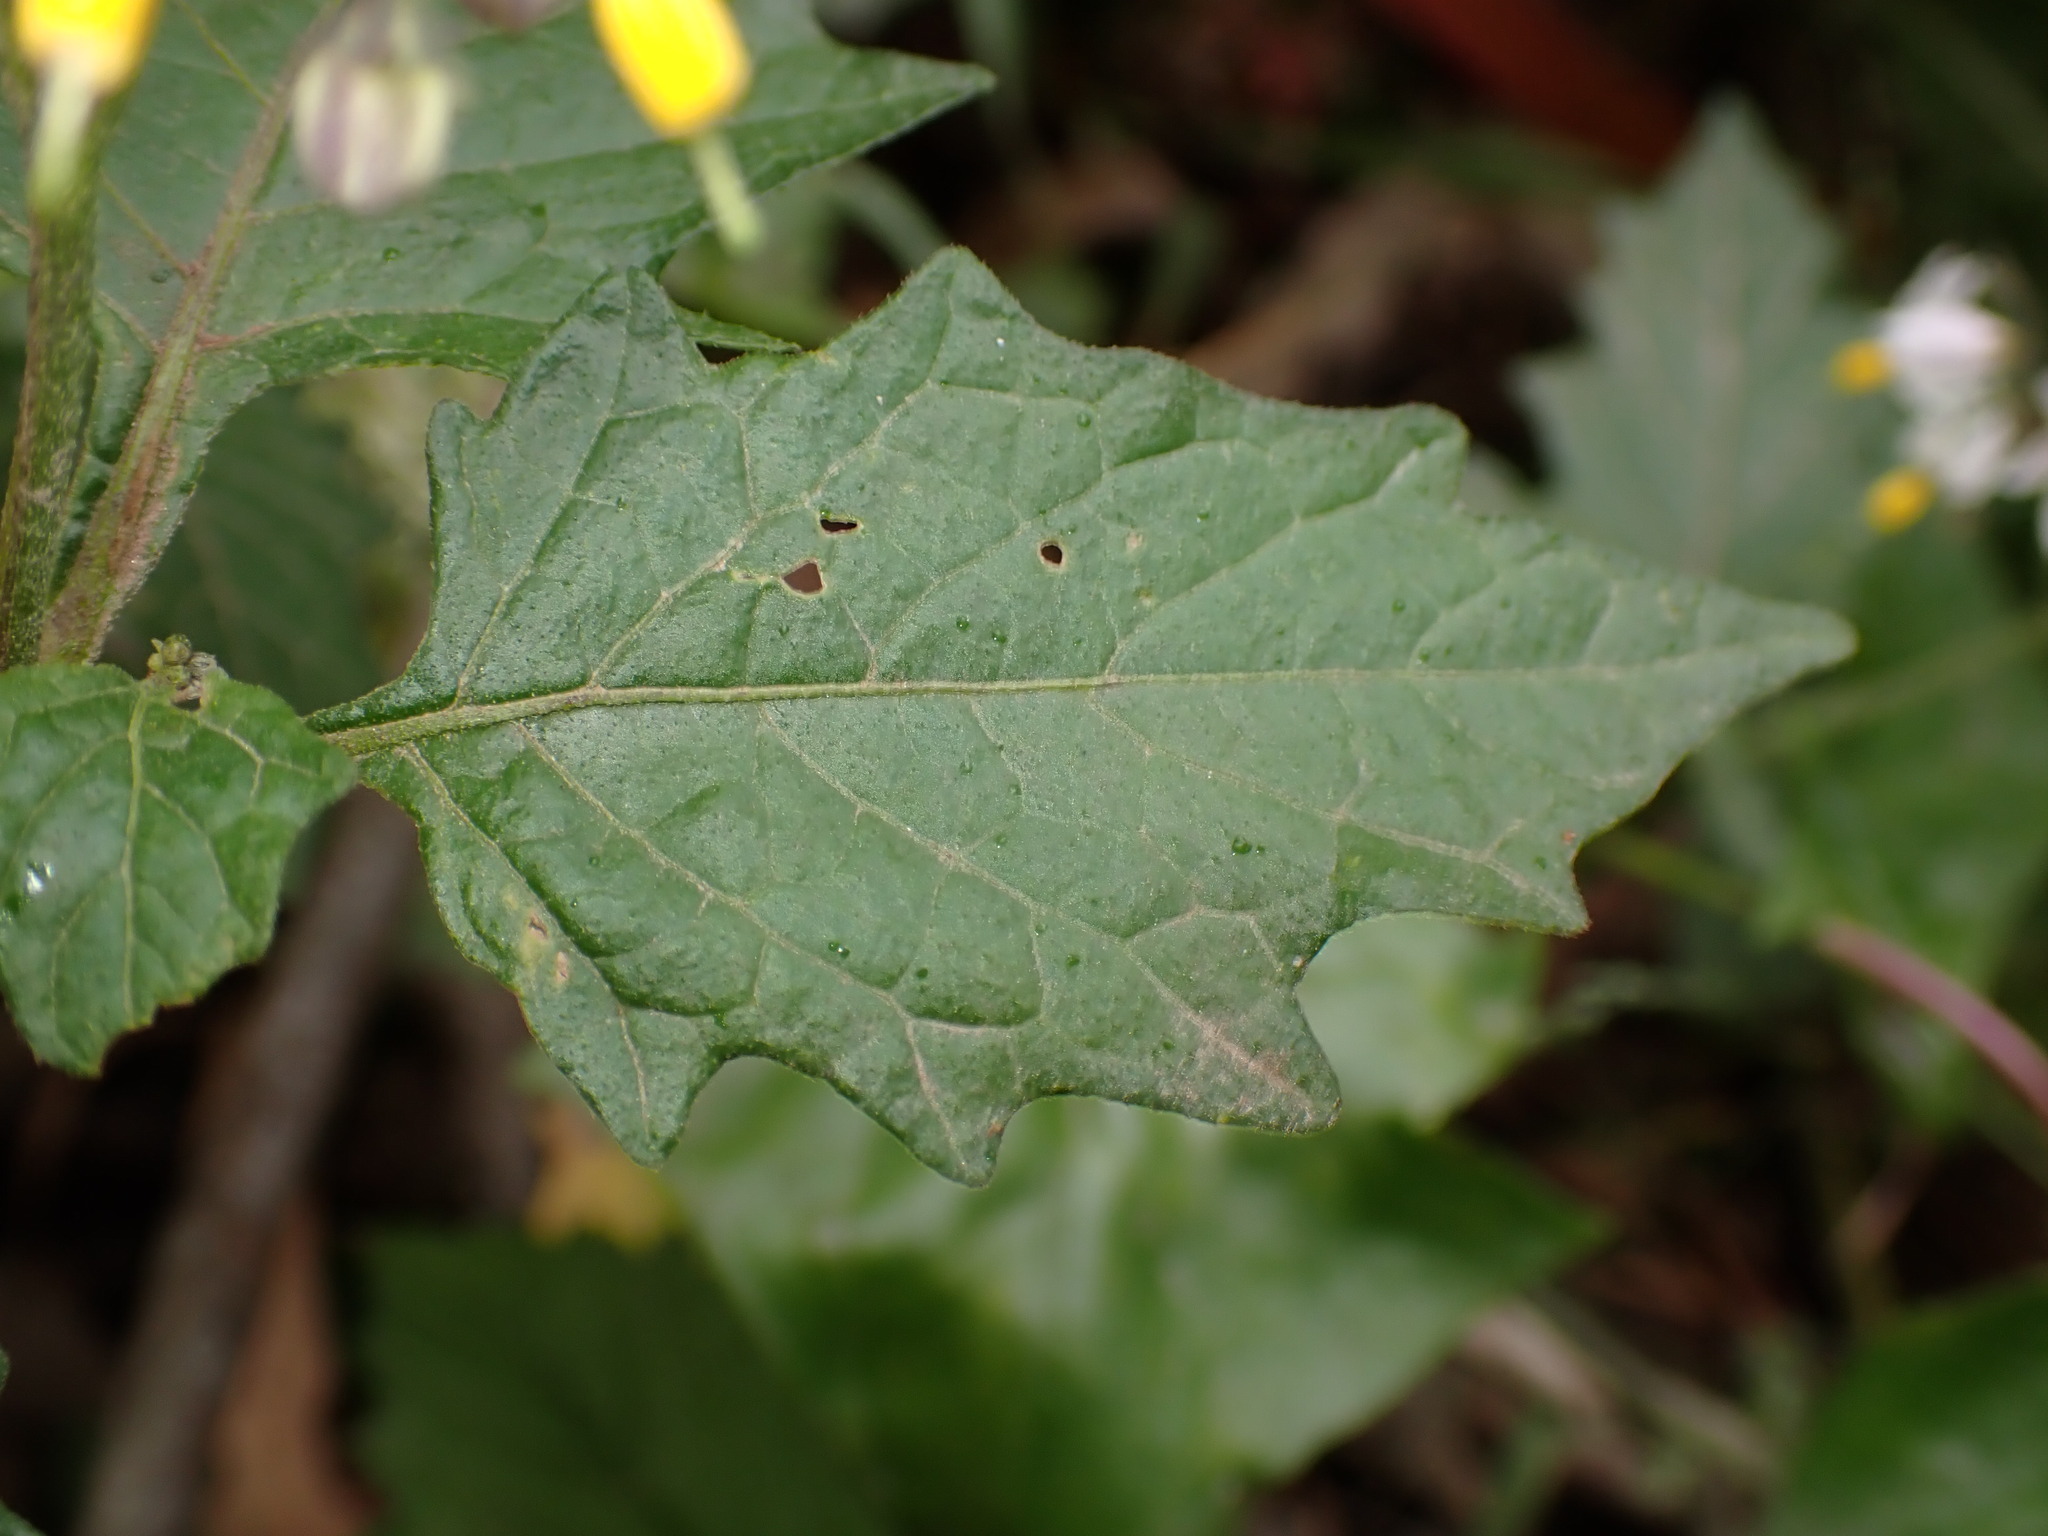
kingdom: Plantae
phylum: Tracheophyta
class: Magnoliopsida
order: Solanales
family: Solanaceae
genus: Solanum
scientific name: Solanum furcatum
